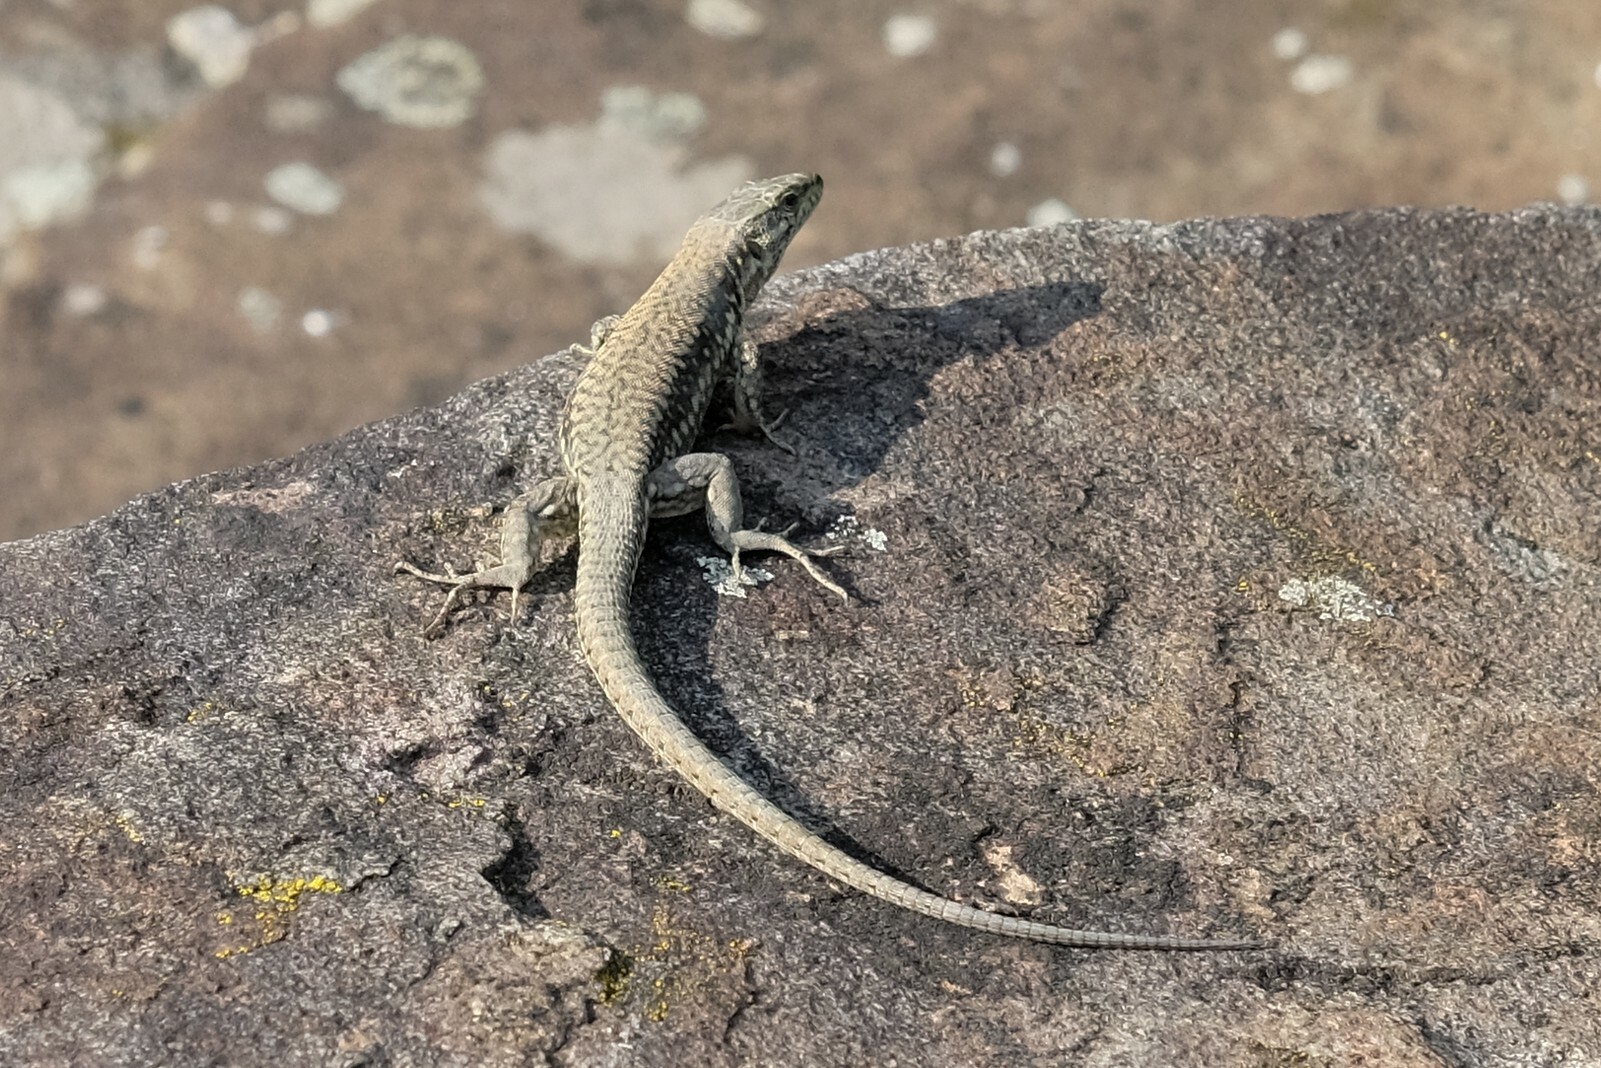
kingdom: Animalia
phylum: Chordata
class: Squamata
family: Lacertidae
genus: Podarcis
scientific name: Podarcis muralis
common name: Common wall lizard
